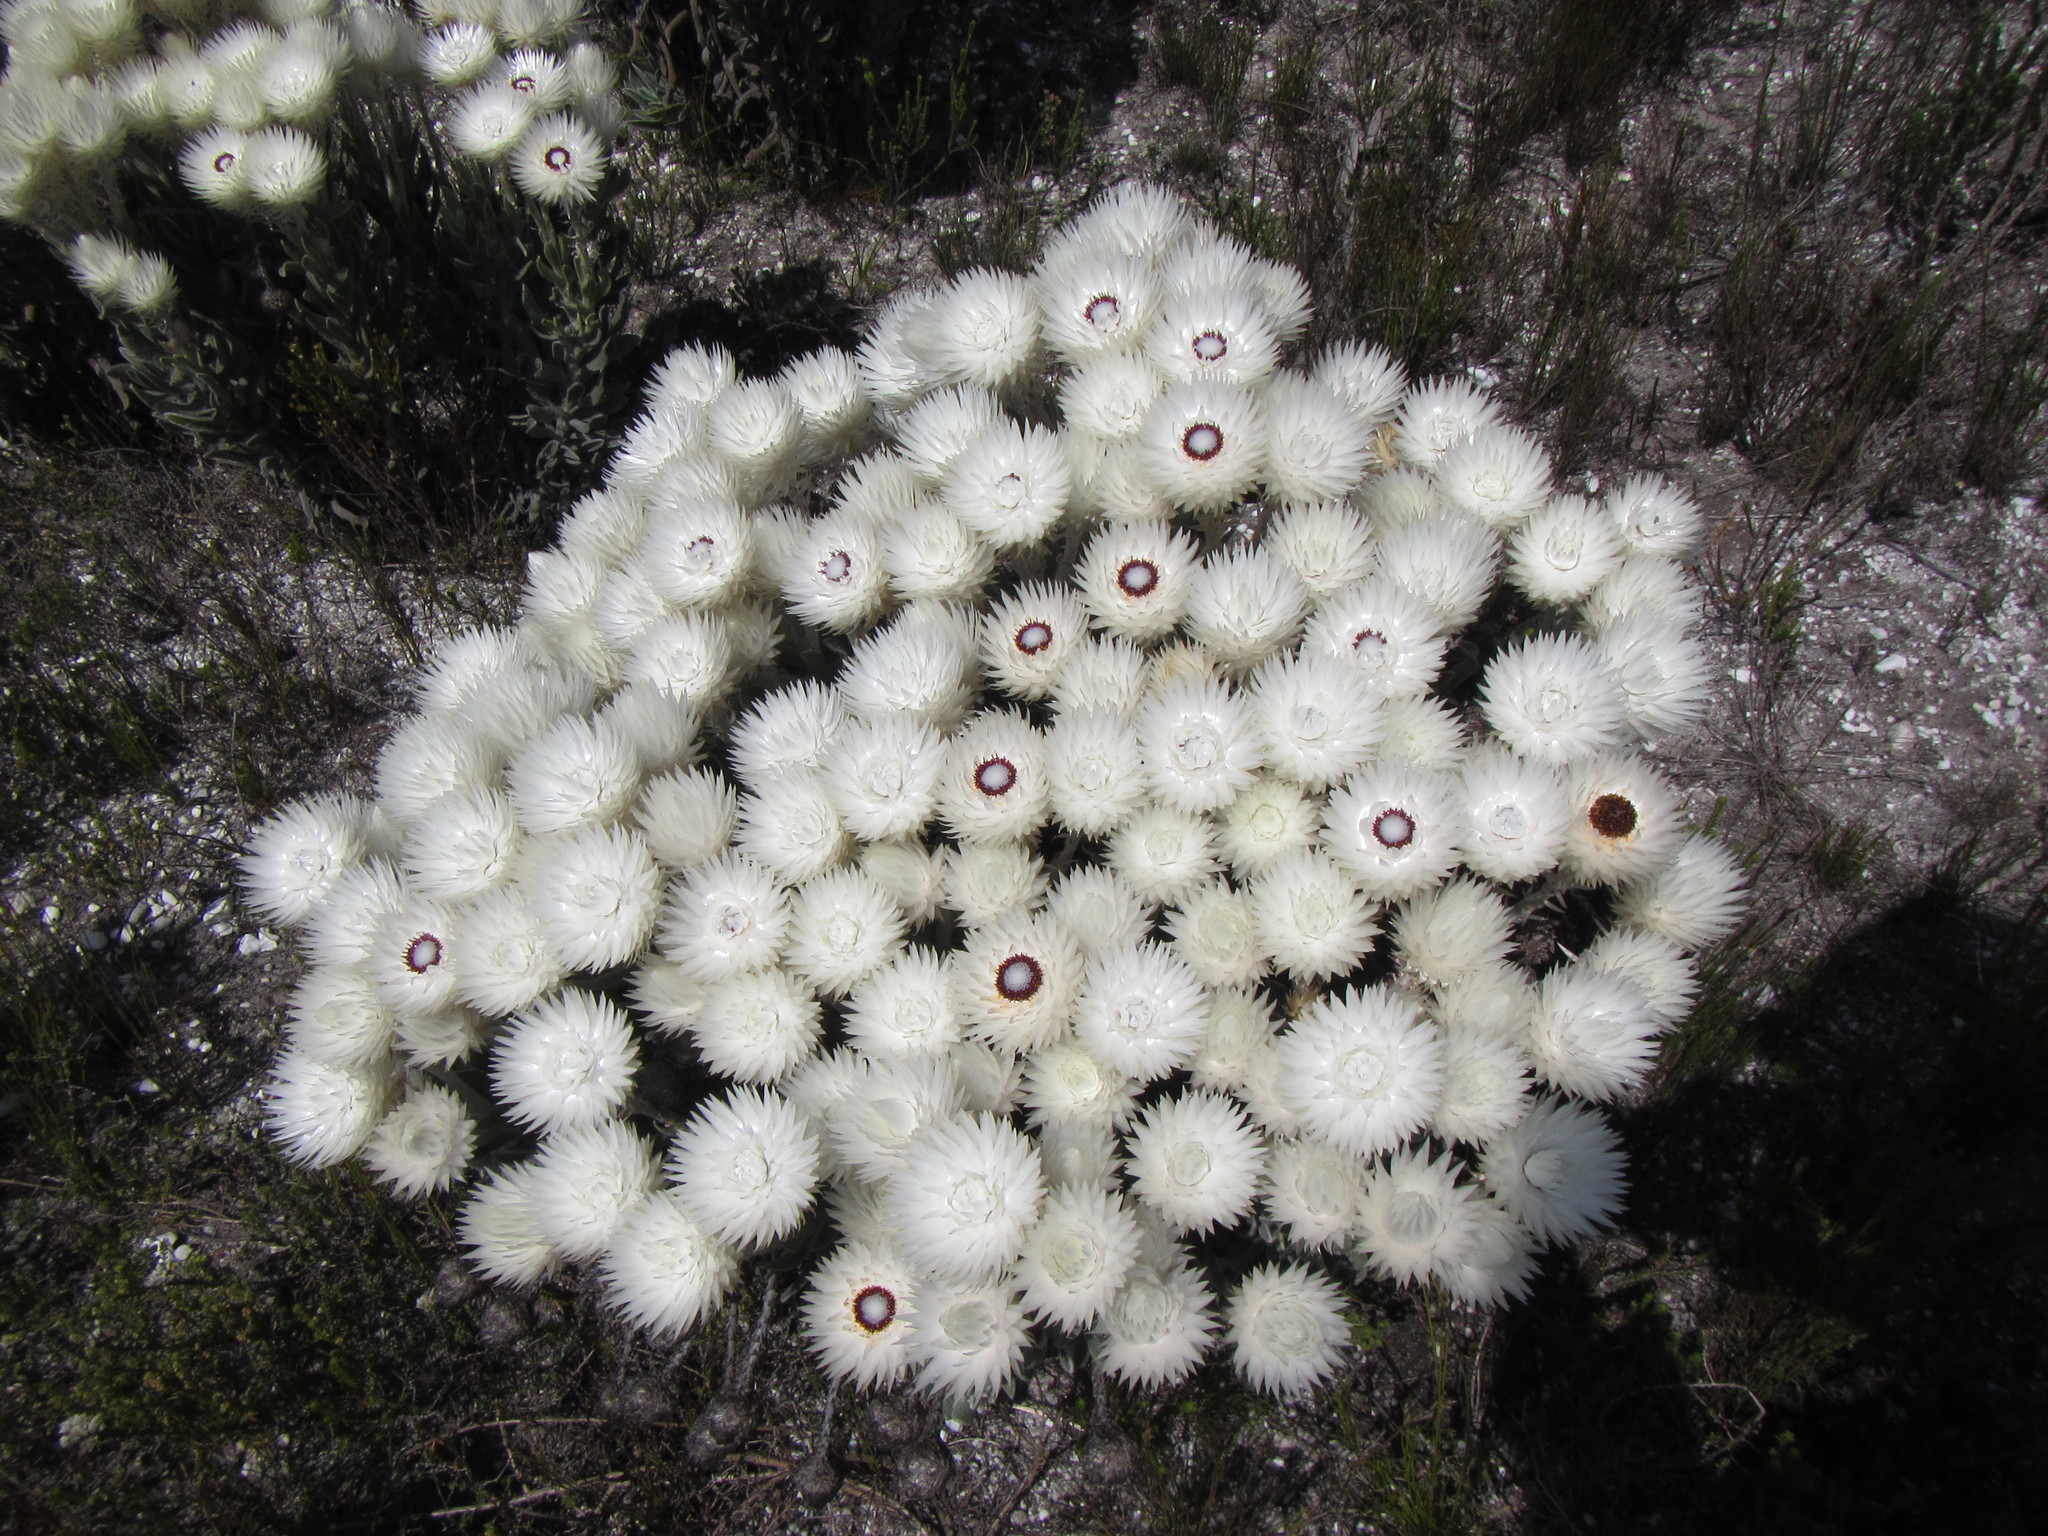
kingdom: Plantae
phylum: Tracheophyta
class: Magnoliopsida
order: Asterales
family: Asteraceae
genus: Syncarpha
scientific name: Syncarpha vestita
